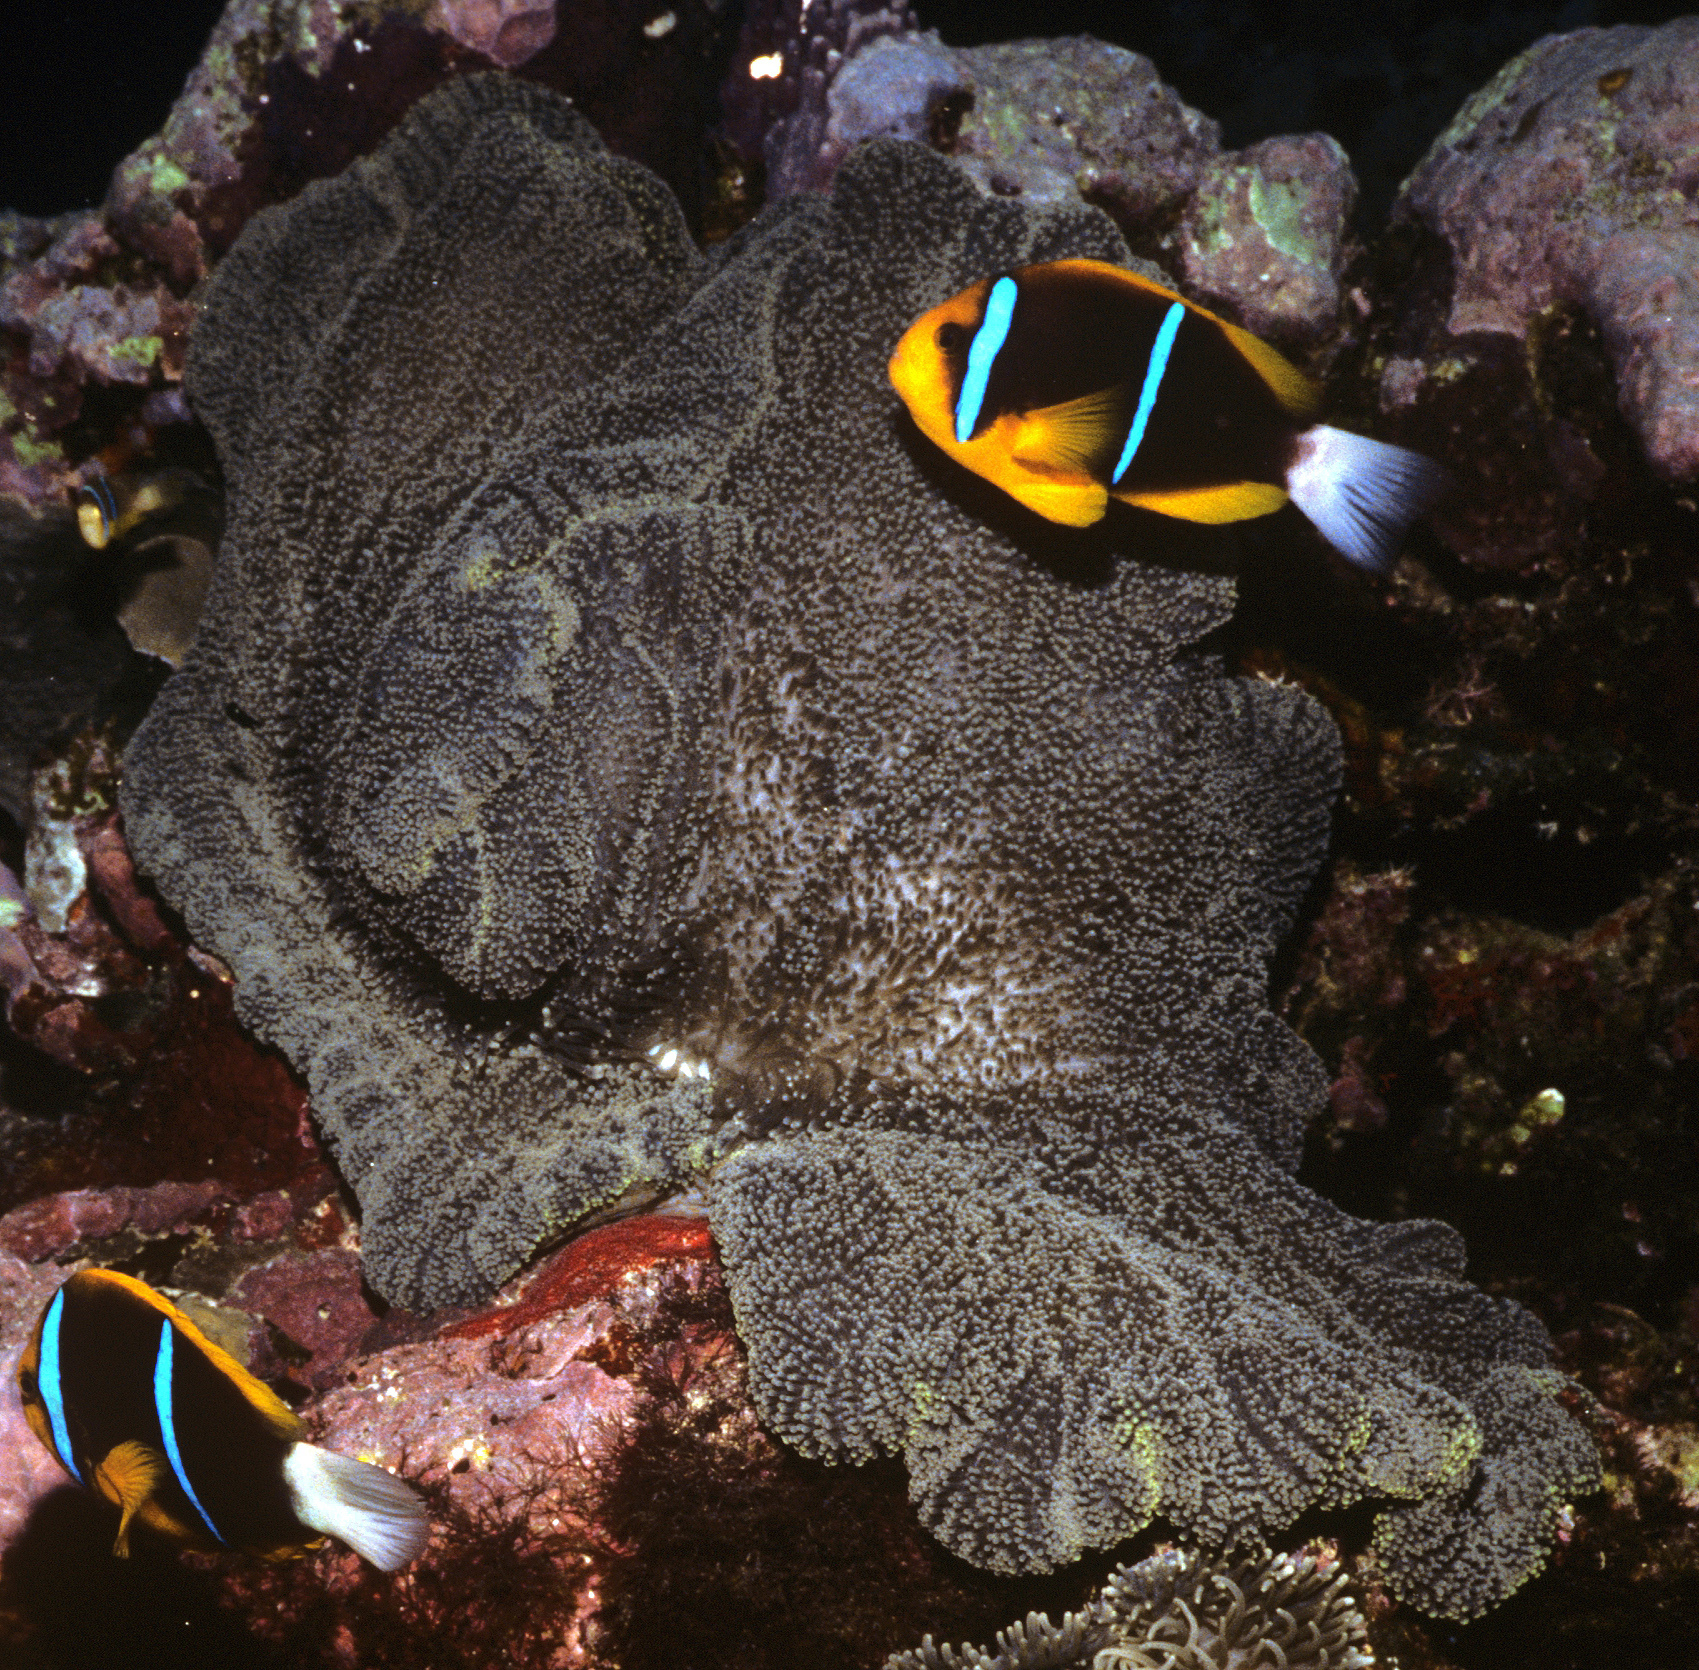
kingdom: Animalia
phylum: Cnidaria
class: Anthozoa
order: Actiniaria
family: Stichodactylidae
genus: Stichodactyla
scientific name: Stichodactyla mertensii
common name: Merten's sea anemone
